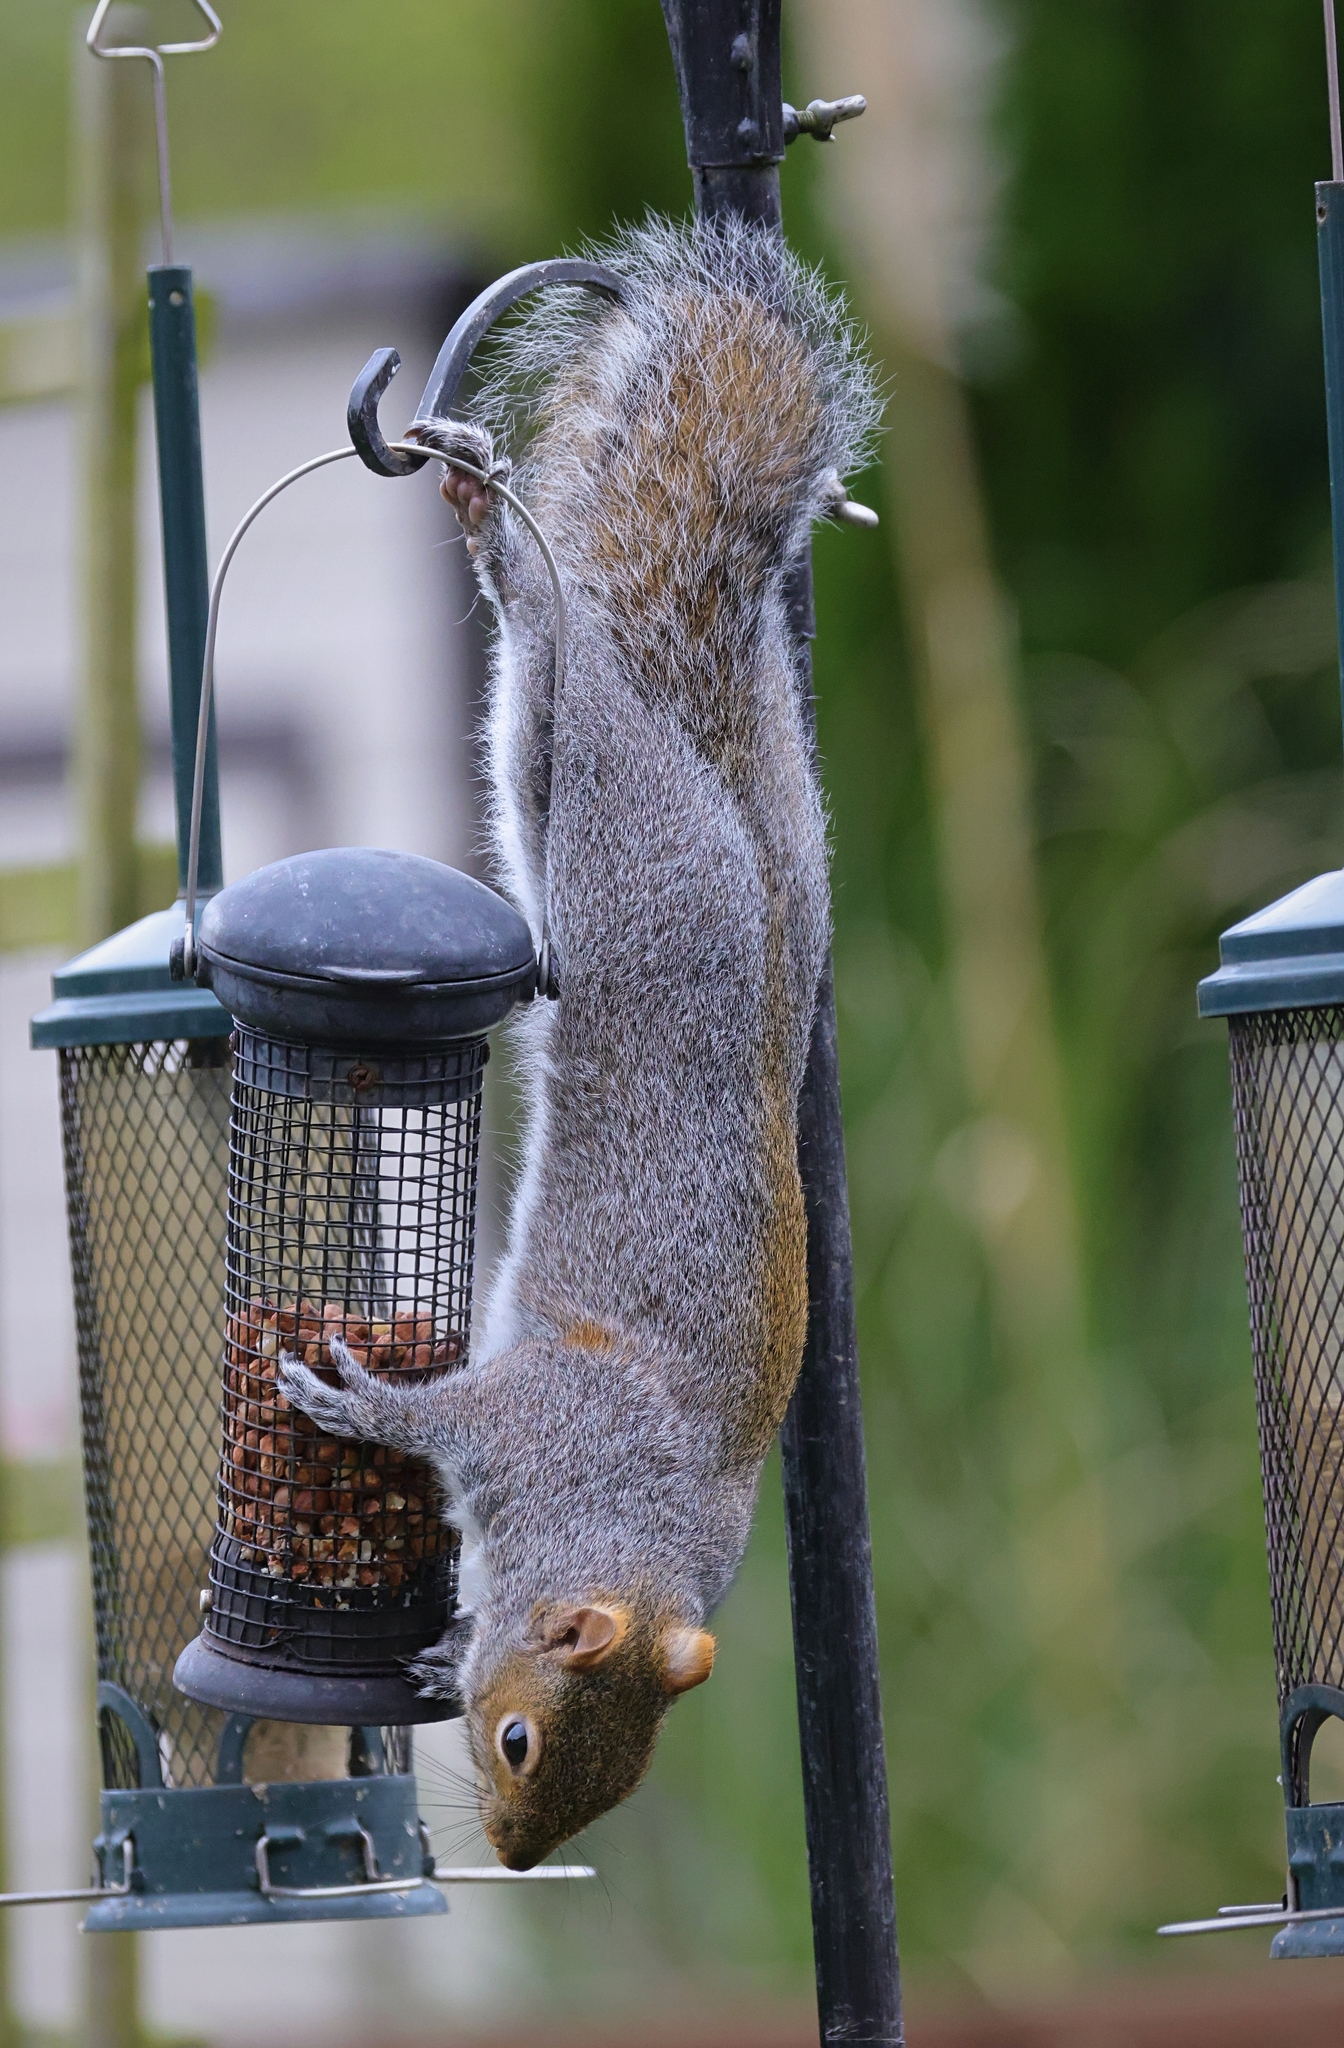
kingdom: Animalia
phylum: Chordata
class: Mammalia
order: Rodentia
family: Sciuridae
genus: Sciurus
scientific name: Sciurus carolinensis
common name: Eastern gray squirrel
